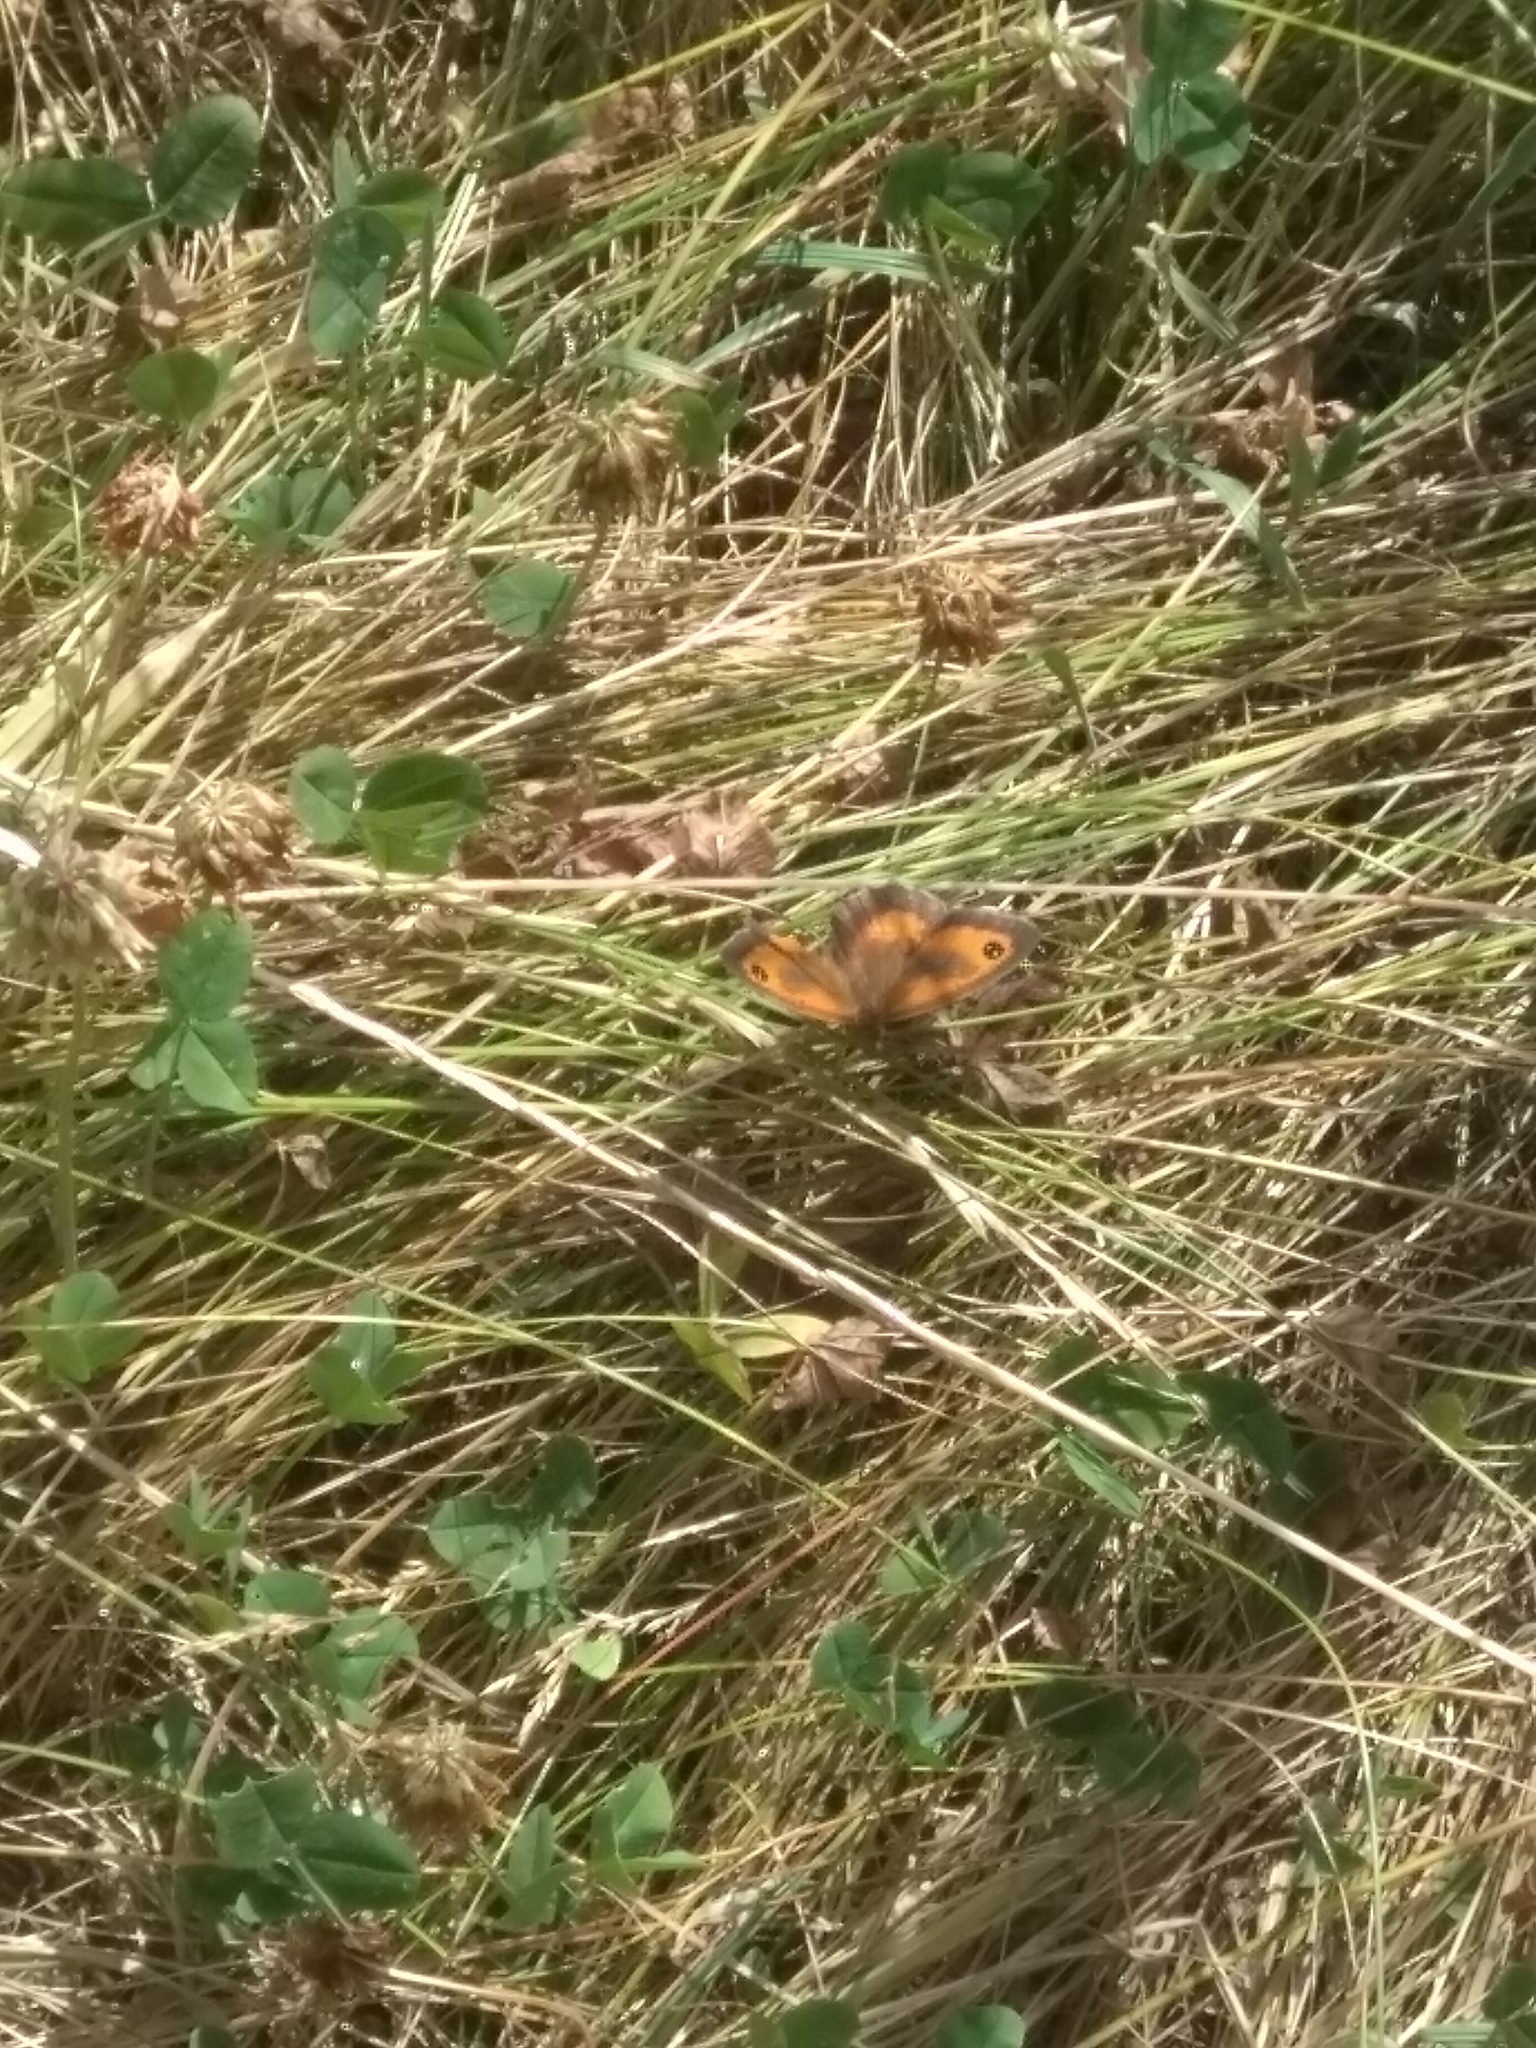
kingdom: Animalia
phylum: Arthropoda
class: Insecta
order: Lepidoptera
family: Nymphalidae
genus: Pyronia
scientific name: Pyronia tithonus
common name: Gatekeeper
